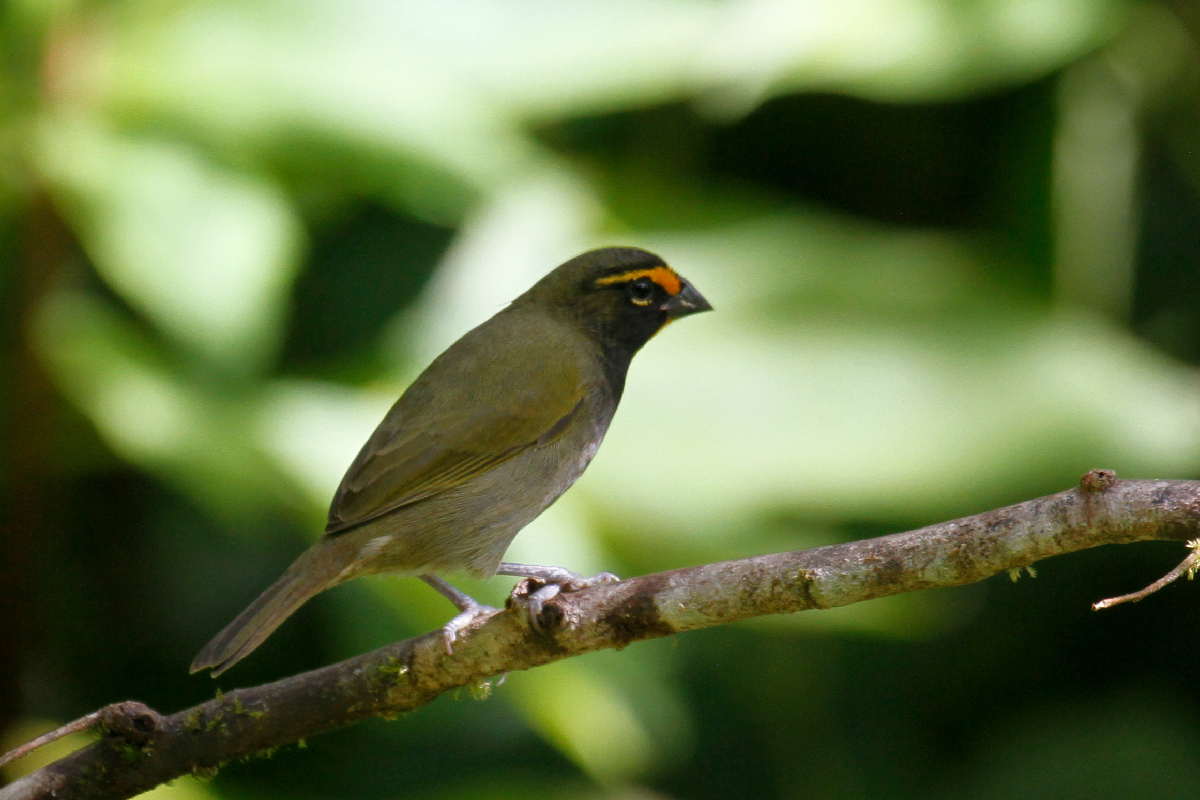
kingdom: Animalia
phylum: Chordata
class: Aves
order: Passeriformes
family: Thraupidae
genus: Tiaris
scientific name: Tiaris olivaceus
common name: Yellow-faced grassquit
